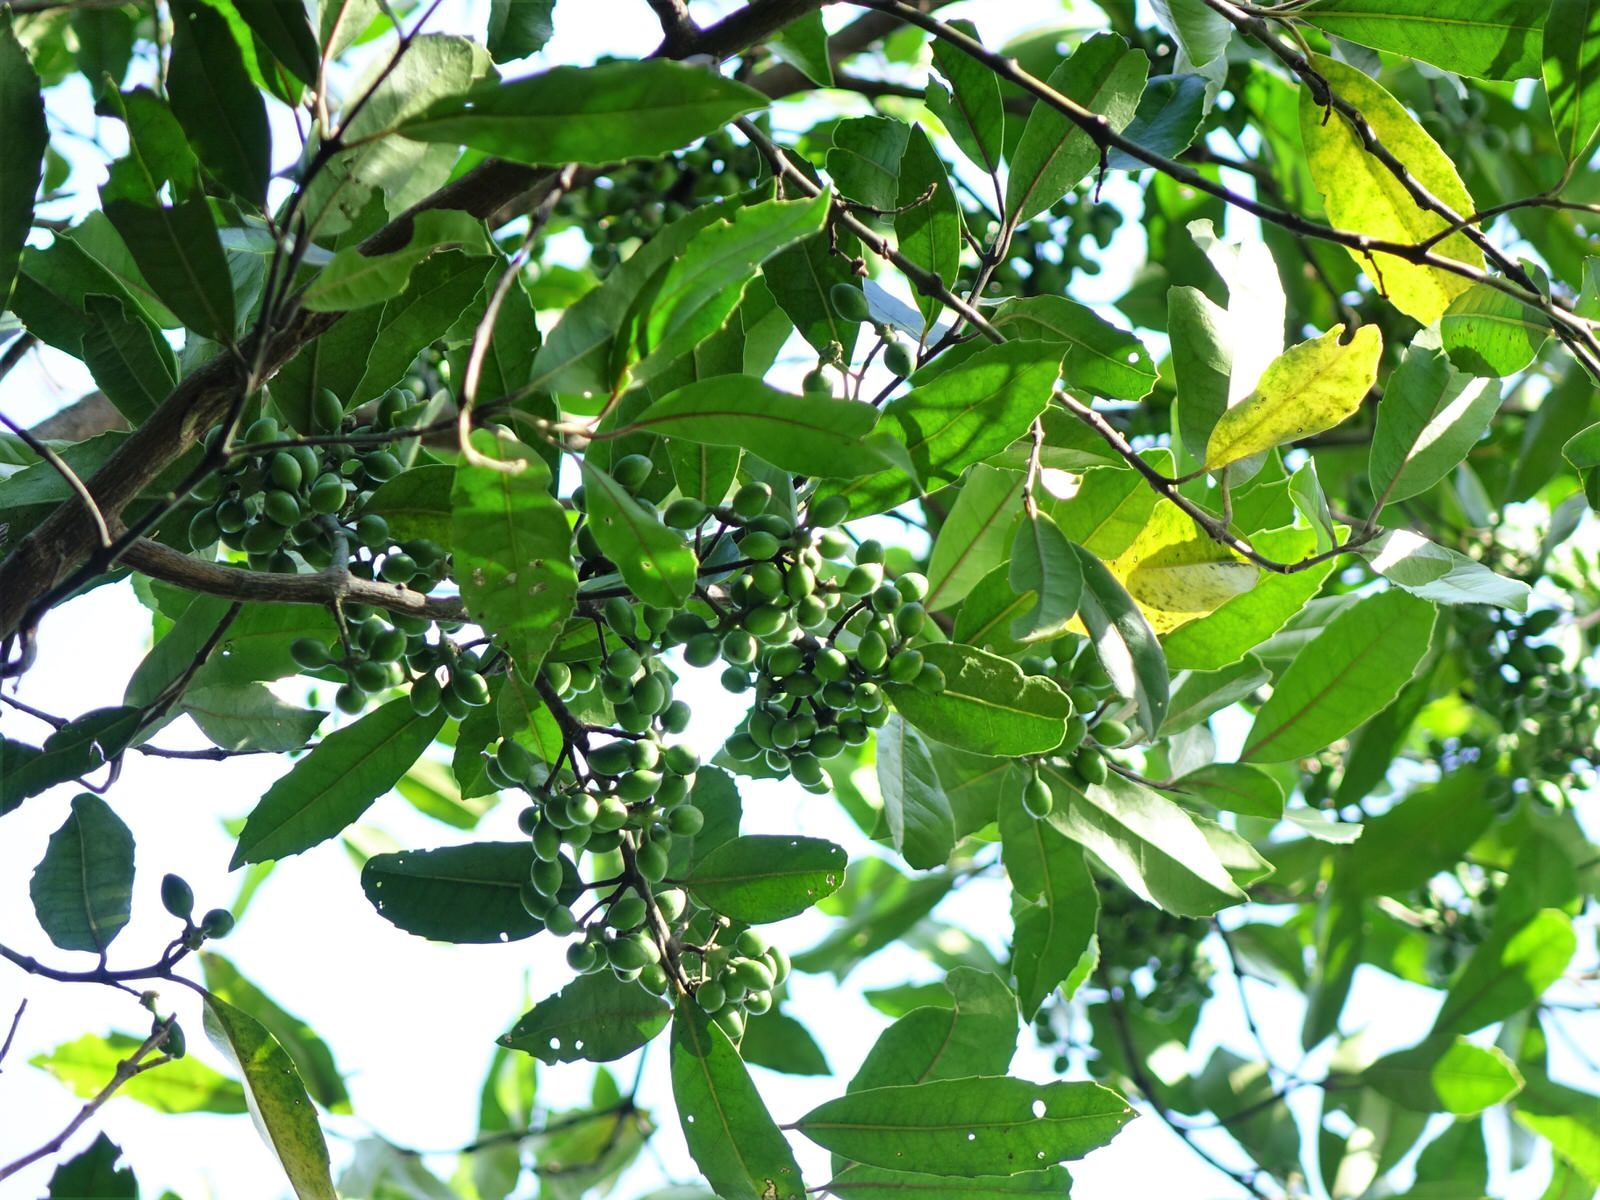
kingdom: Plantae
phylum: Tracheophyta
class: Magnoliopsida
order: Laurales
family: Monimiaceae
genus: Hedycarya
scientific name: Hedycarya arborea
